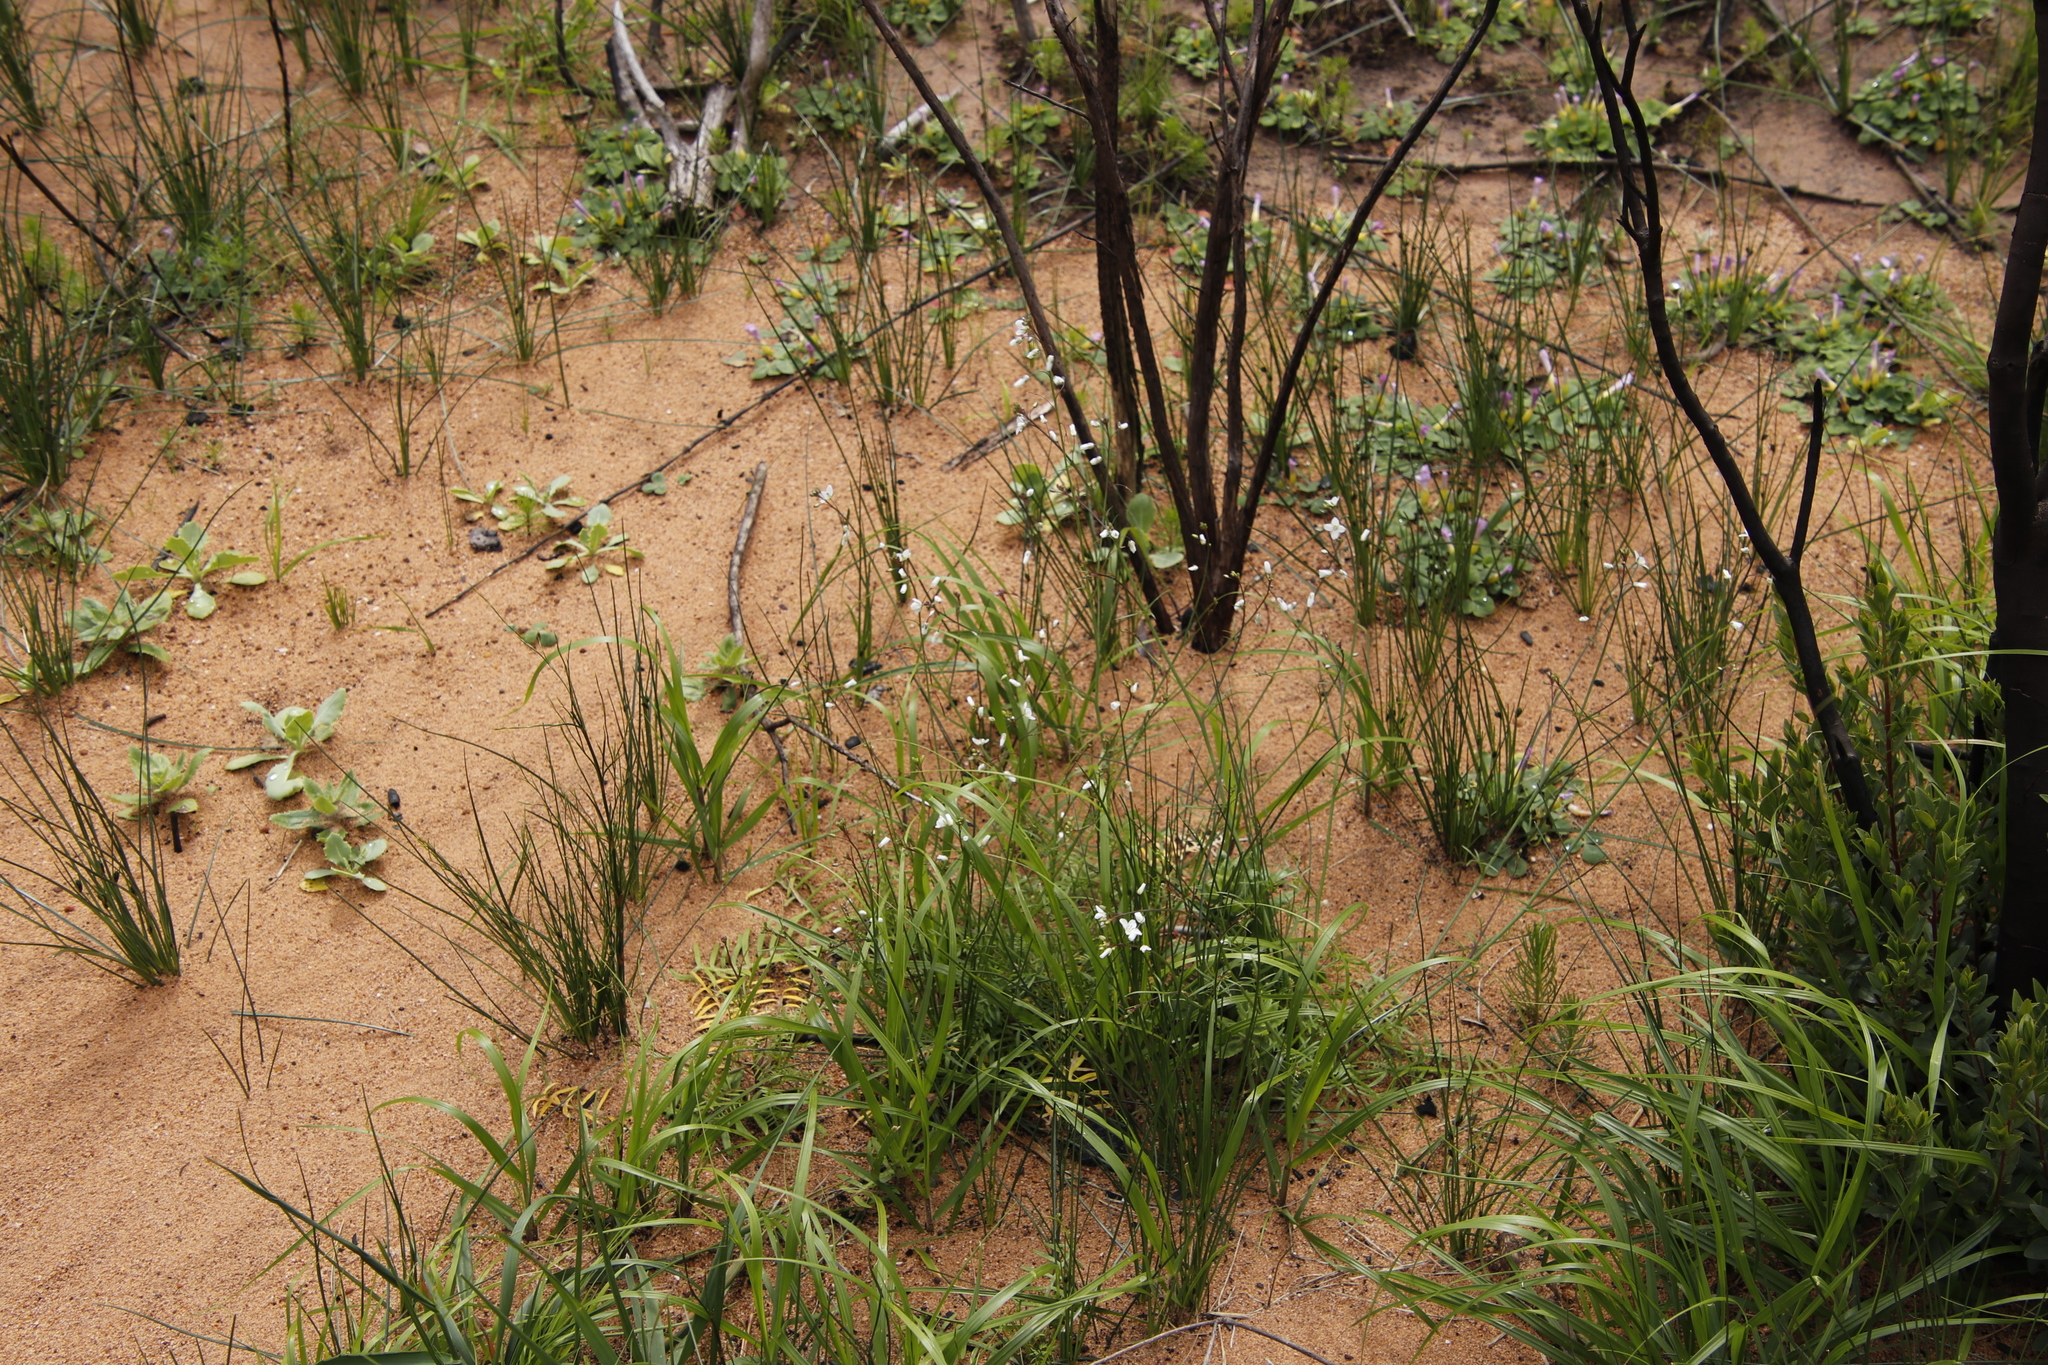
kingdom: Plantae
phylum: Tracheophyta
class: Magnoliopsida
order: Brassicales
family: Brassicaceae
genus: Heliophila
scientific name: Heliophila concatenata
